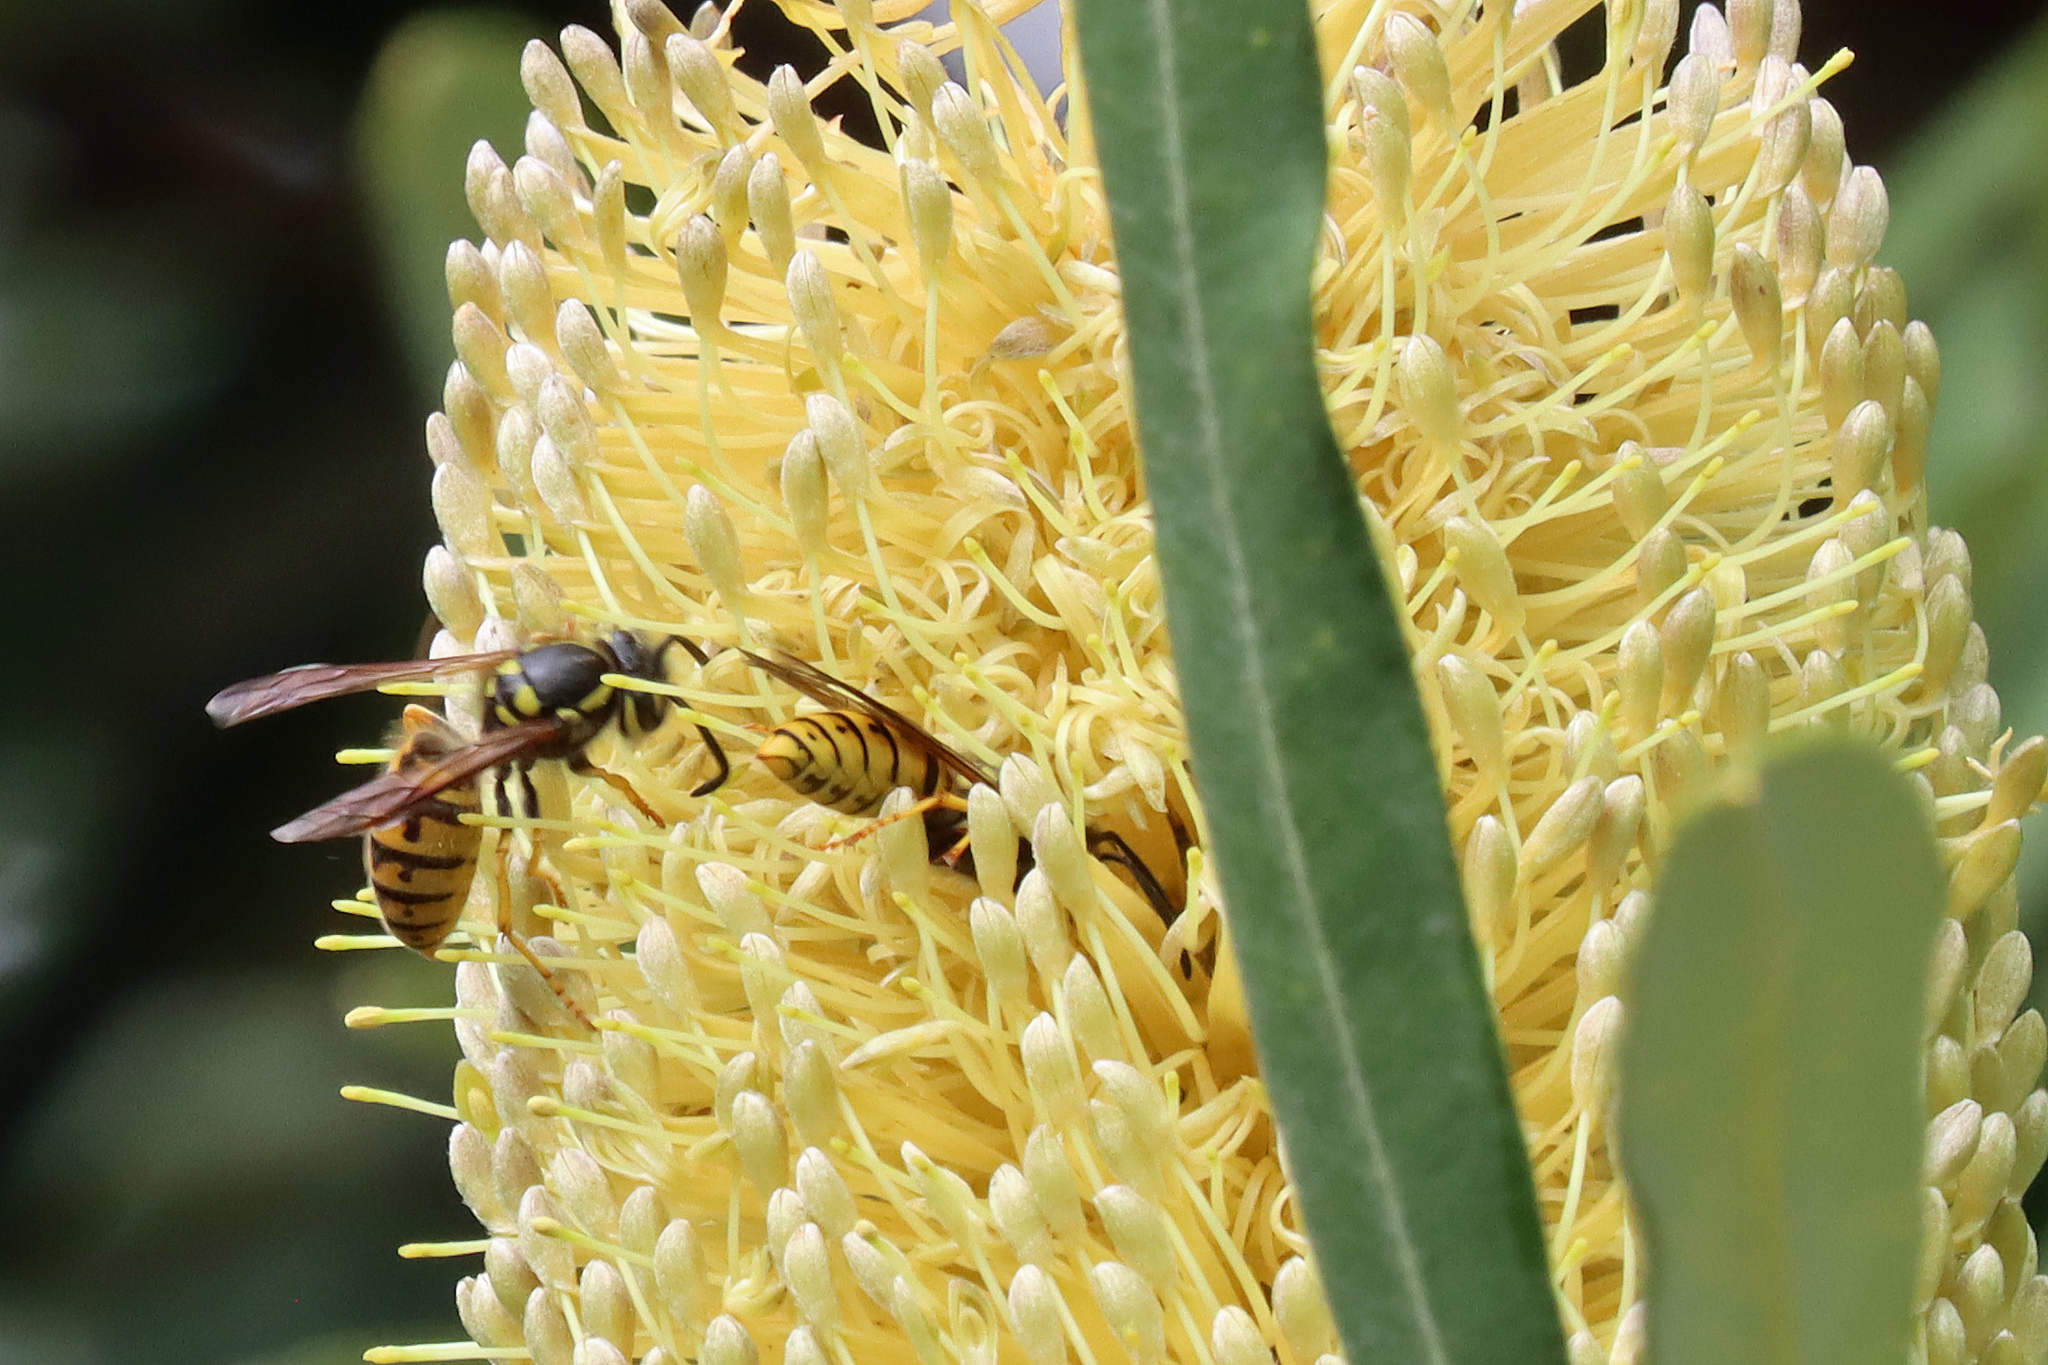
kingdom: Animalia
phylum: Arthropoda
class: Insecta
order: Hymenoptera
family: Vespidae
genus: Vespula
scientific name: Vespula germanica
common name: German wasp
